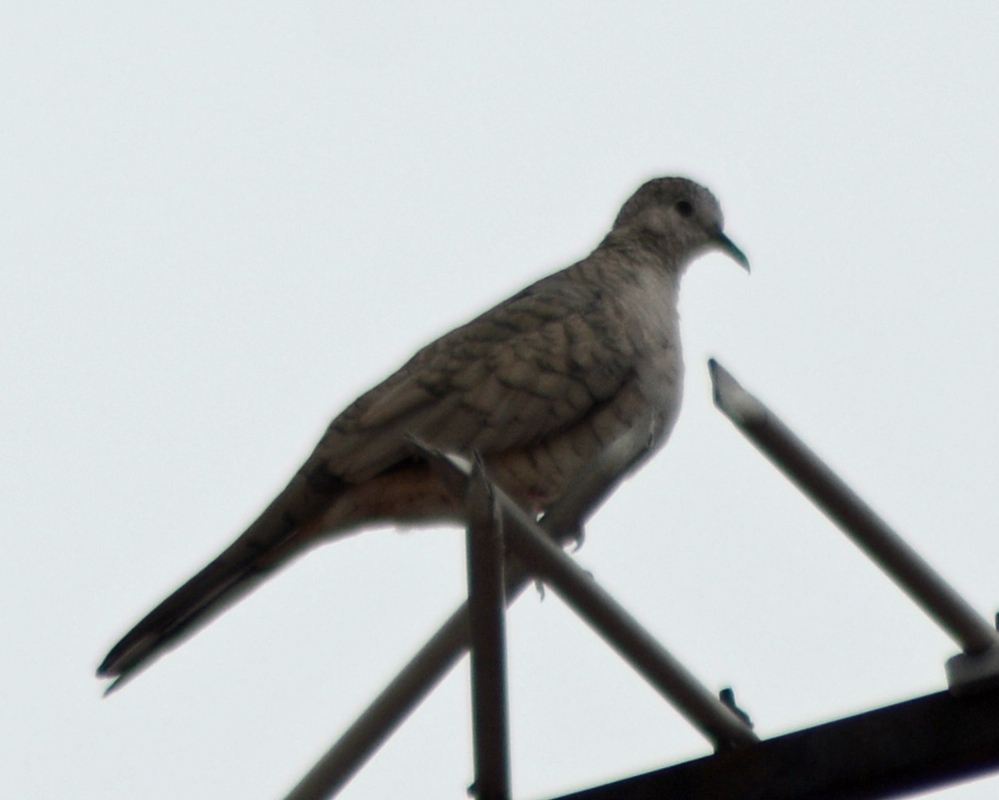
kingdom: Animalia
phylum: Chordata
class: Aves
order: Columbiformes
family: Columbidae
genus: Columbina
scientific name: Columbina inca
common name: Inca dove
